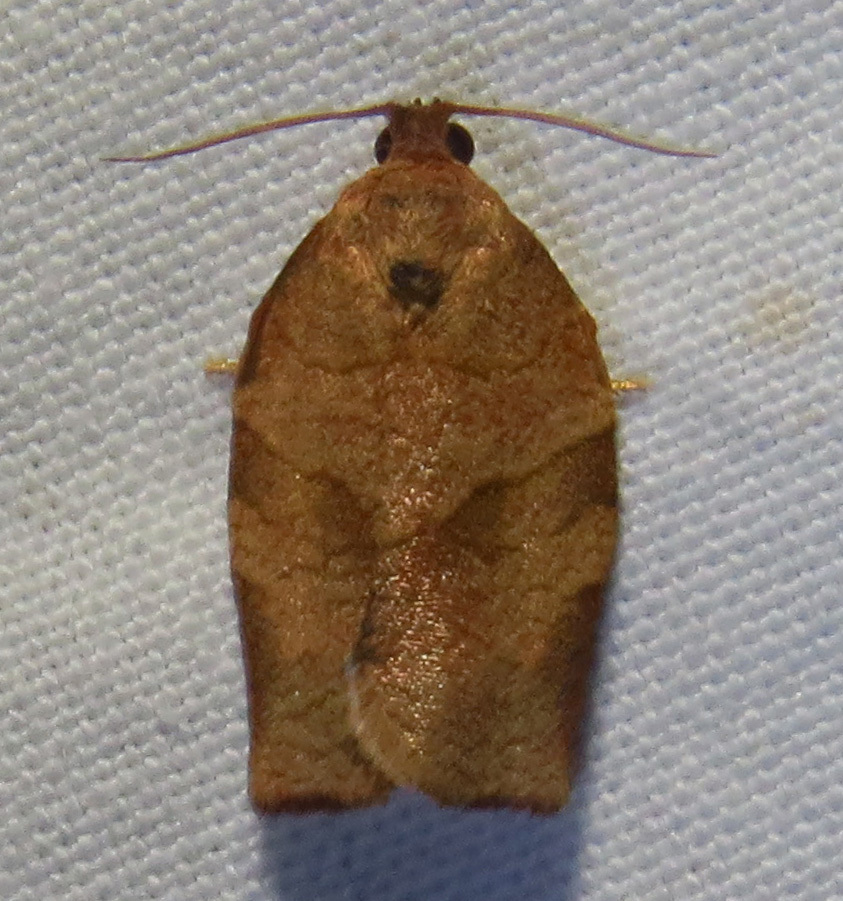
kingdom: Animalia
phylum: Arthropoda
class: Insecta
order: Lepidoptera
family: Tortricidae
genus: Choristoneura
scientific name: Choristoneura rosaceana
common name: Oblique-banded leafroller moth
